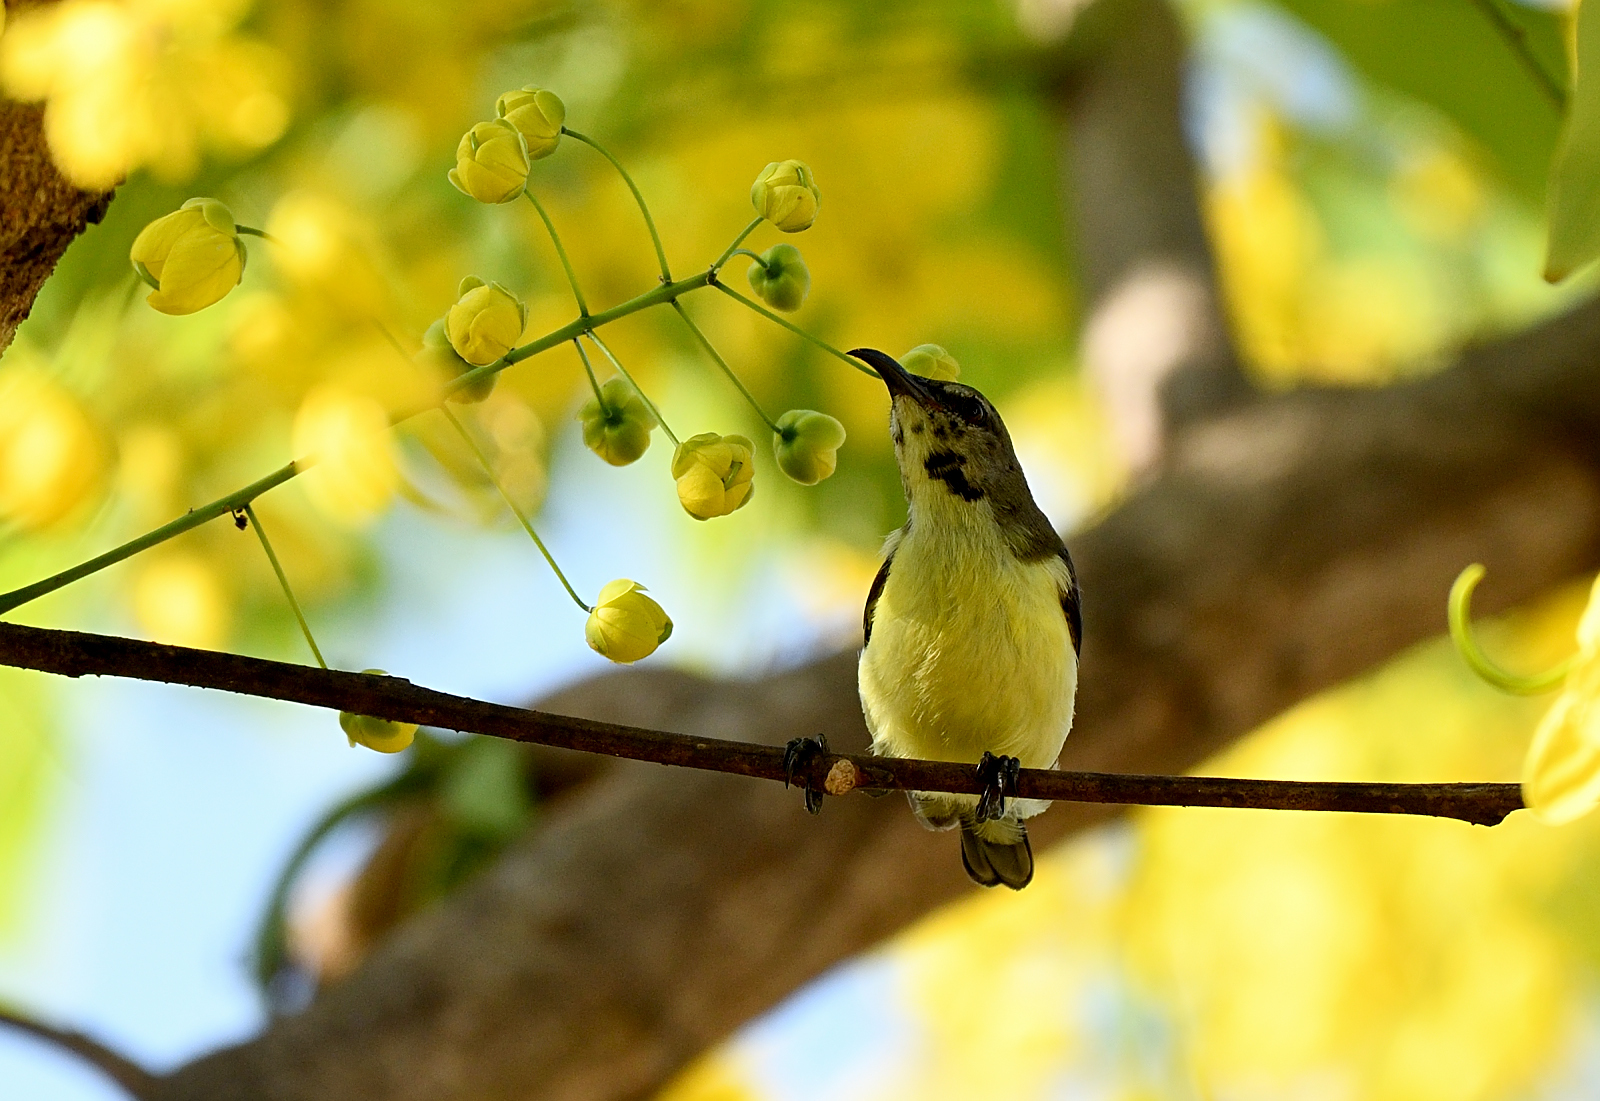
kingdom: Animalia
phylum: Chordata
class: Aves
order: Passeriformes
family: Nectariniidae
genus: Leptocoma
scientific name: Leptocoma zeylonica
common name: Purple-rumped sunbird
